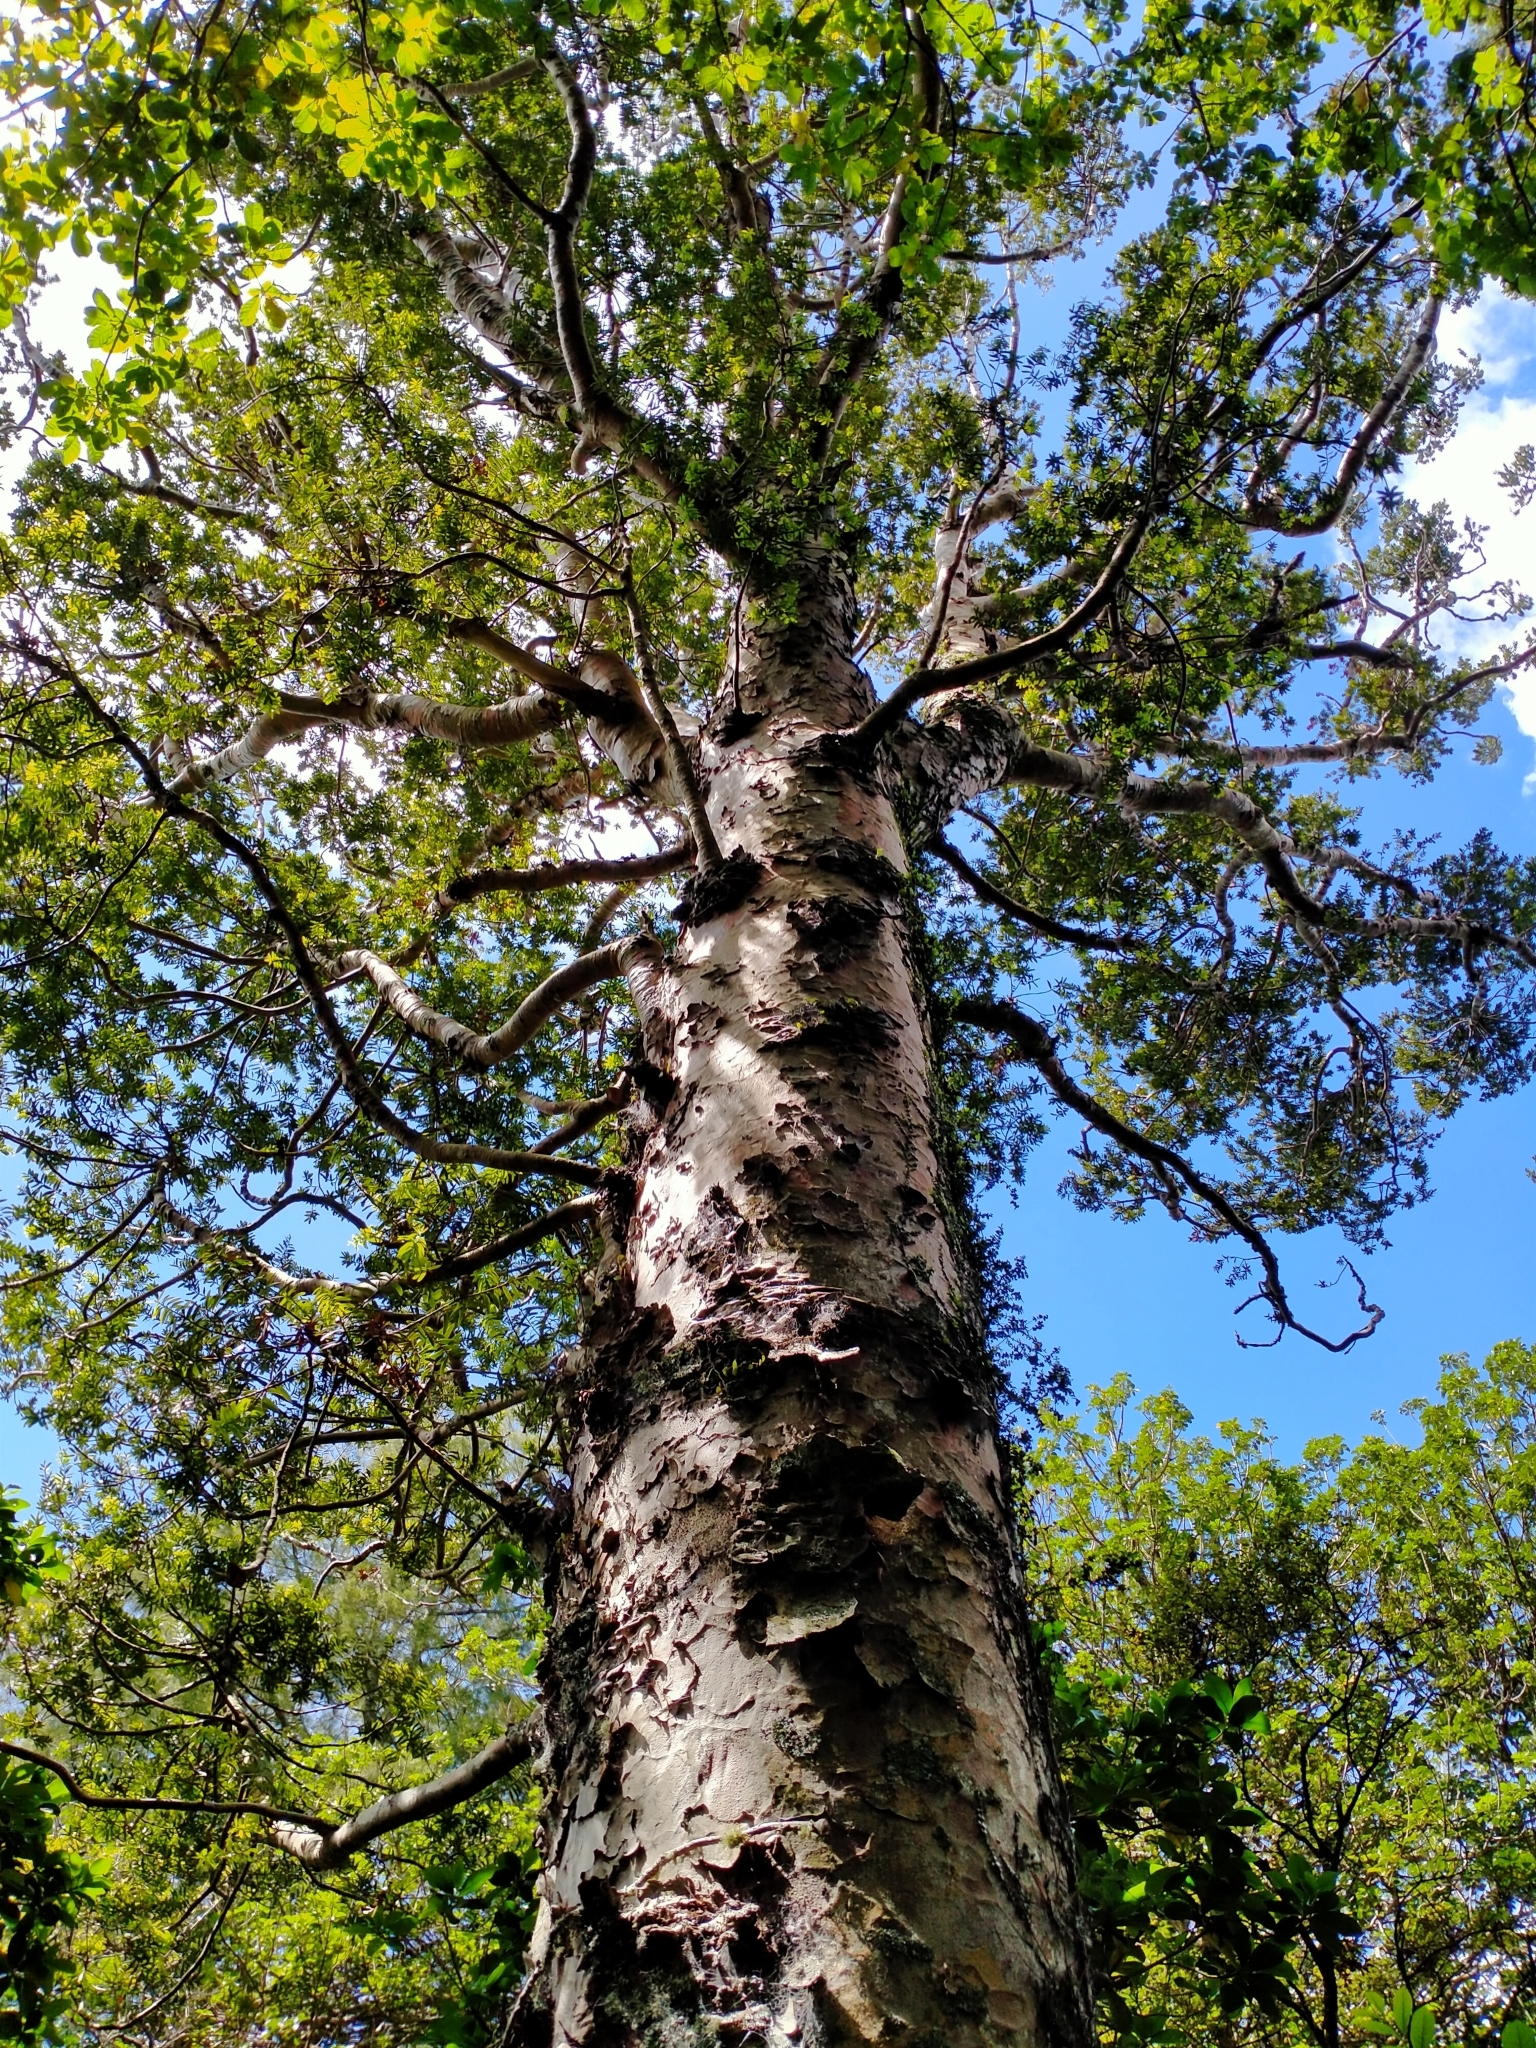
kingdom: Plantae
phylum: Tracheophyta
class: Pinopsida
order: Pinales
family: Araucariaceae
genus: Agathis
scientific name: Agathis australis
